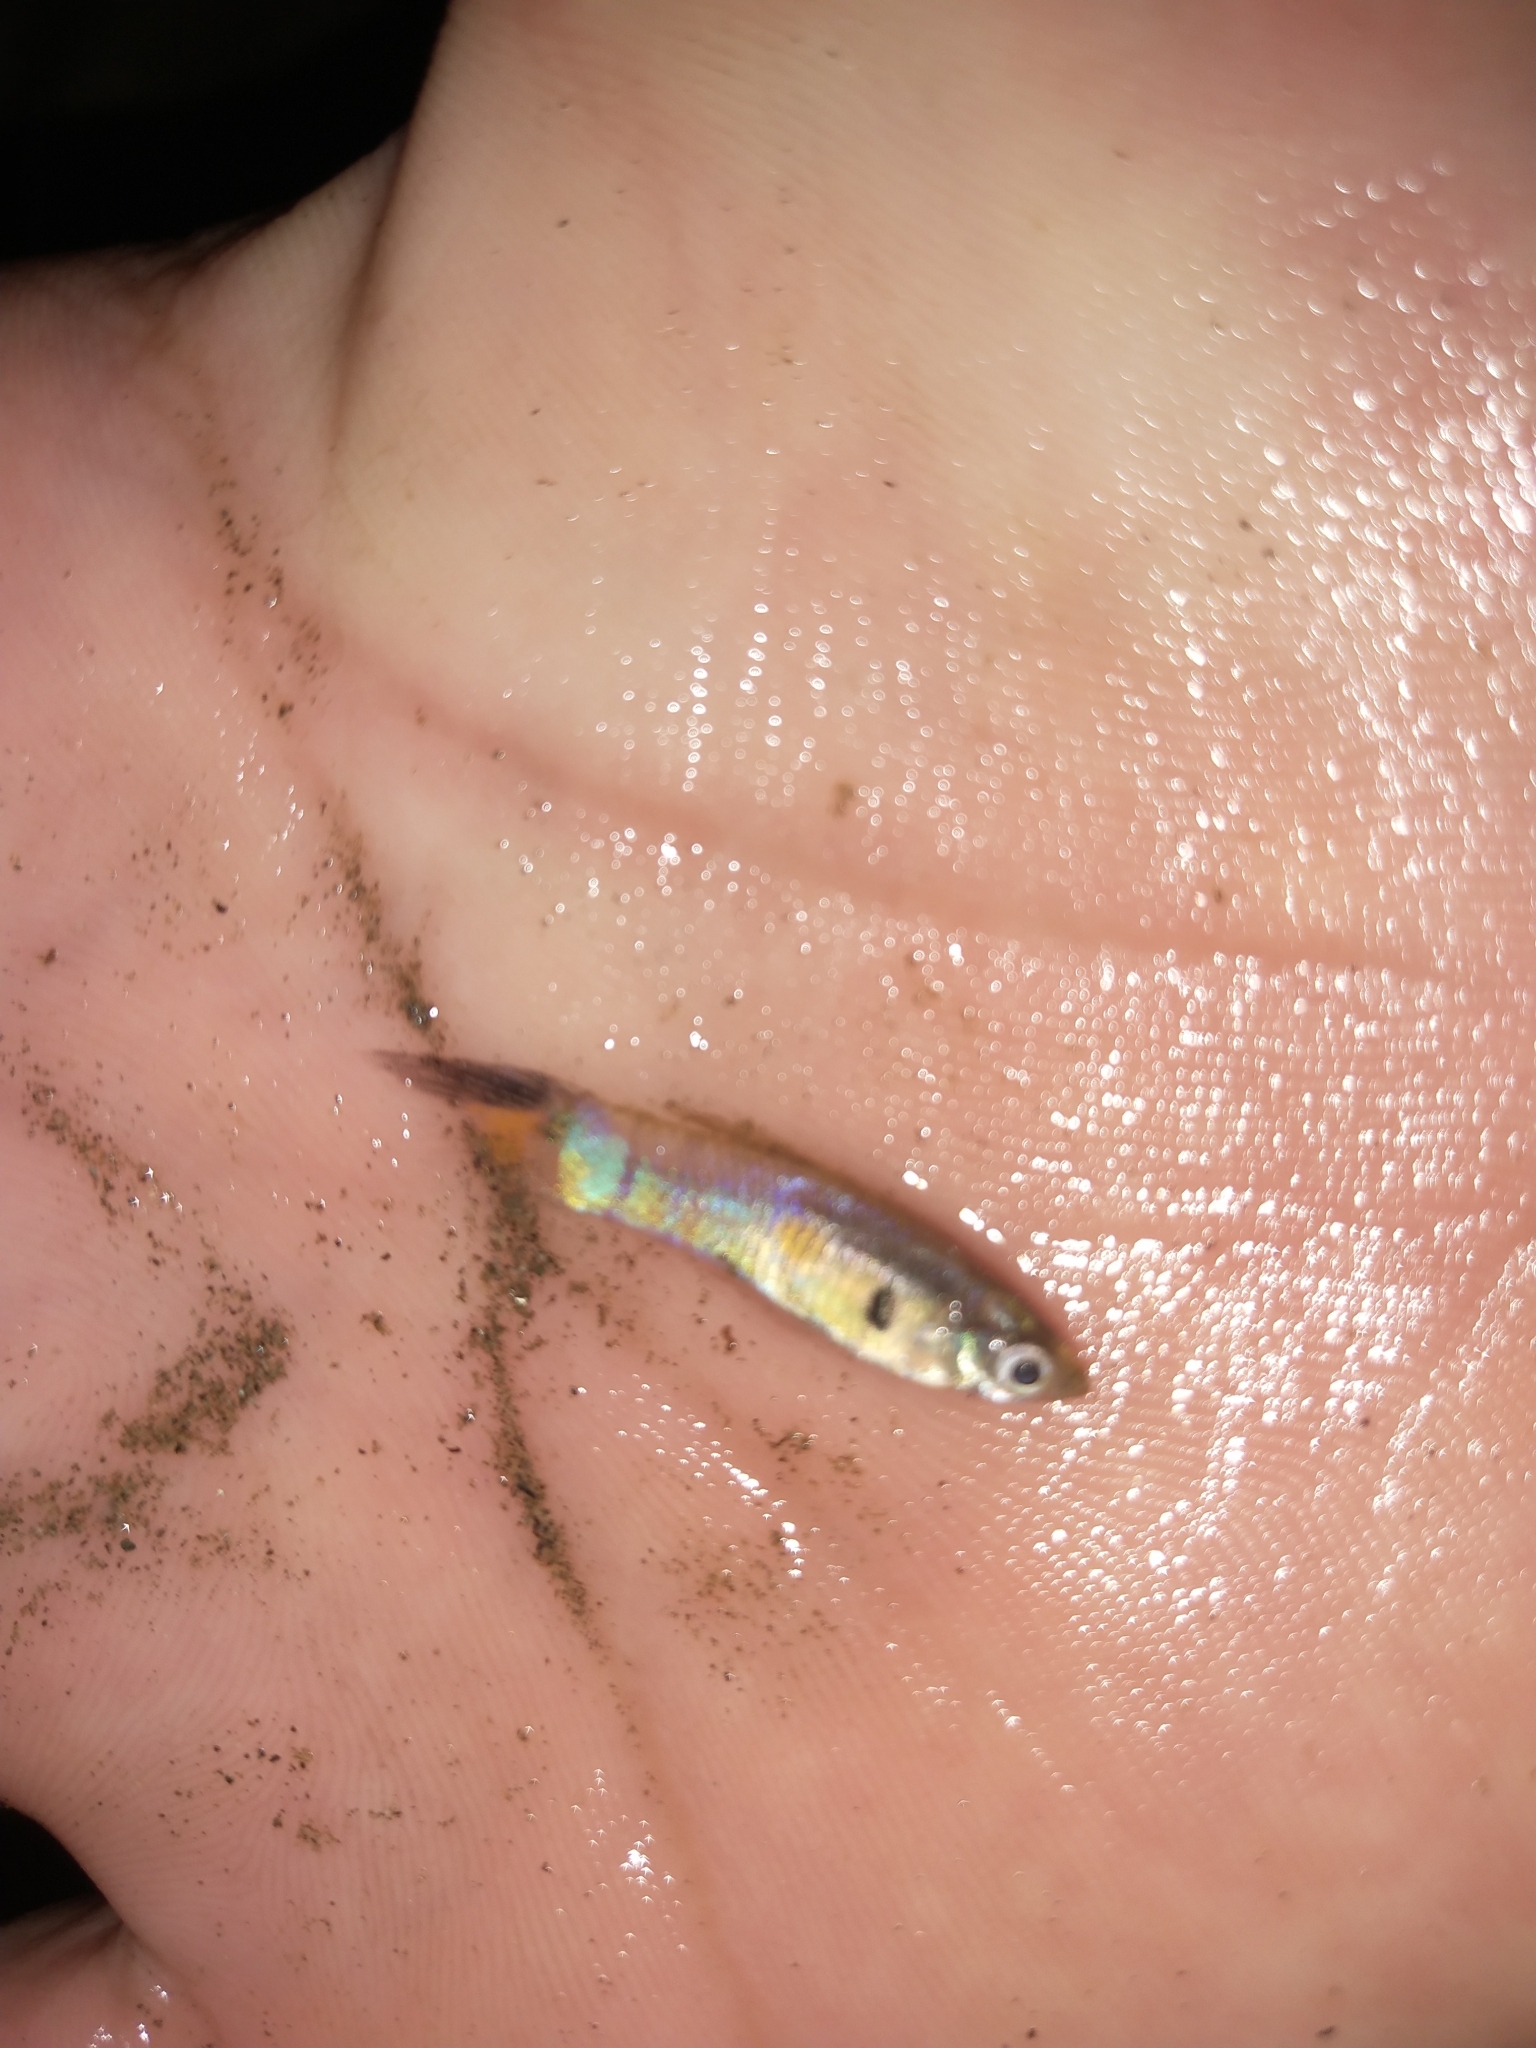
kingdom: Animalia
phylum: Chordata
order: Cyprinodontiformes
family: Poeciliidae
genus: Poecilia
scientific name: Poecilia reticulata
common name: Guppy
